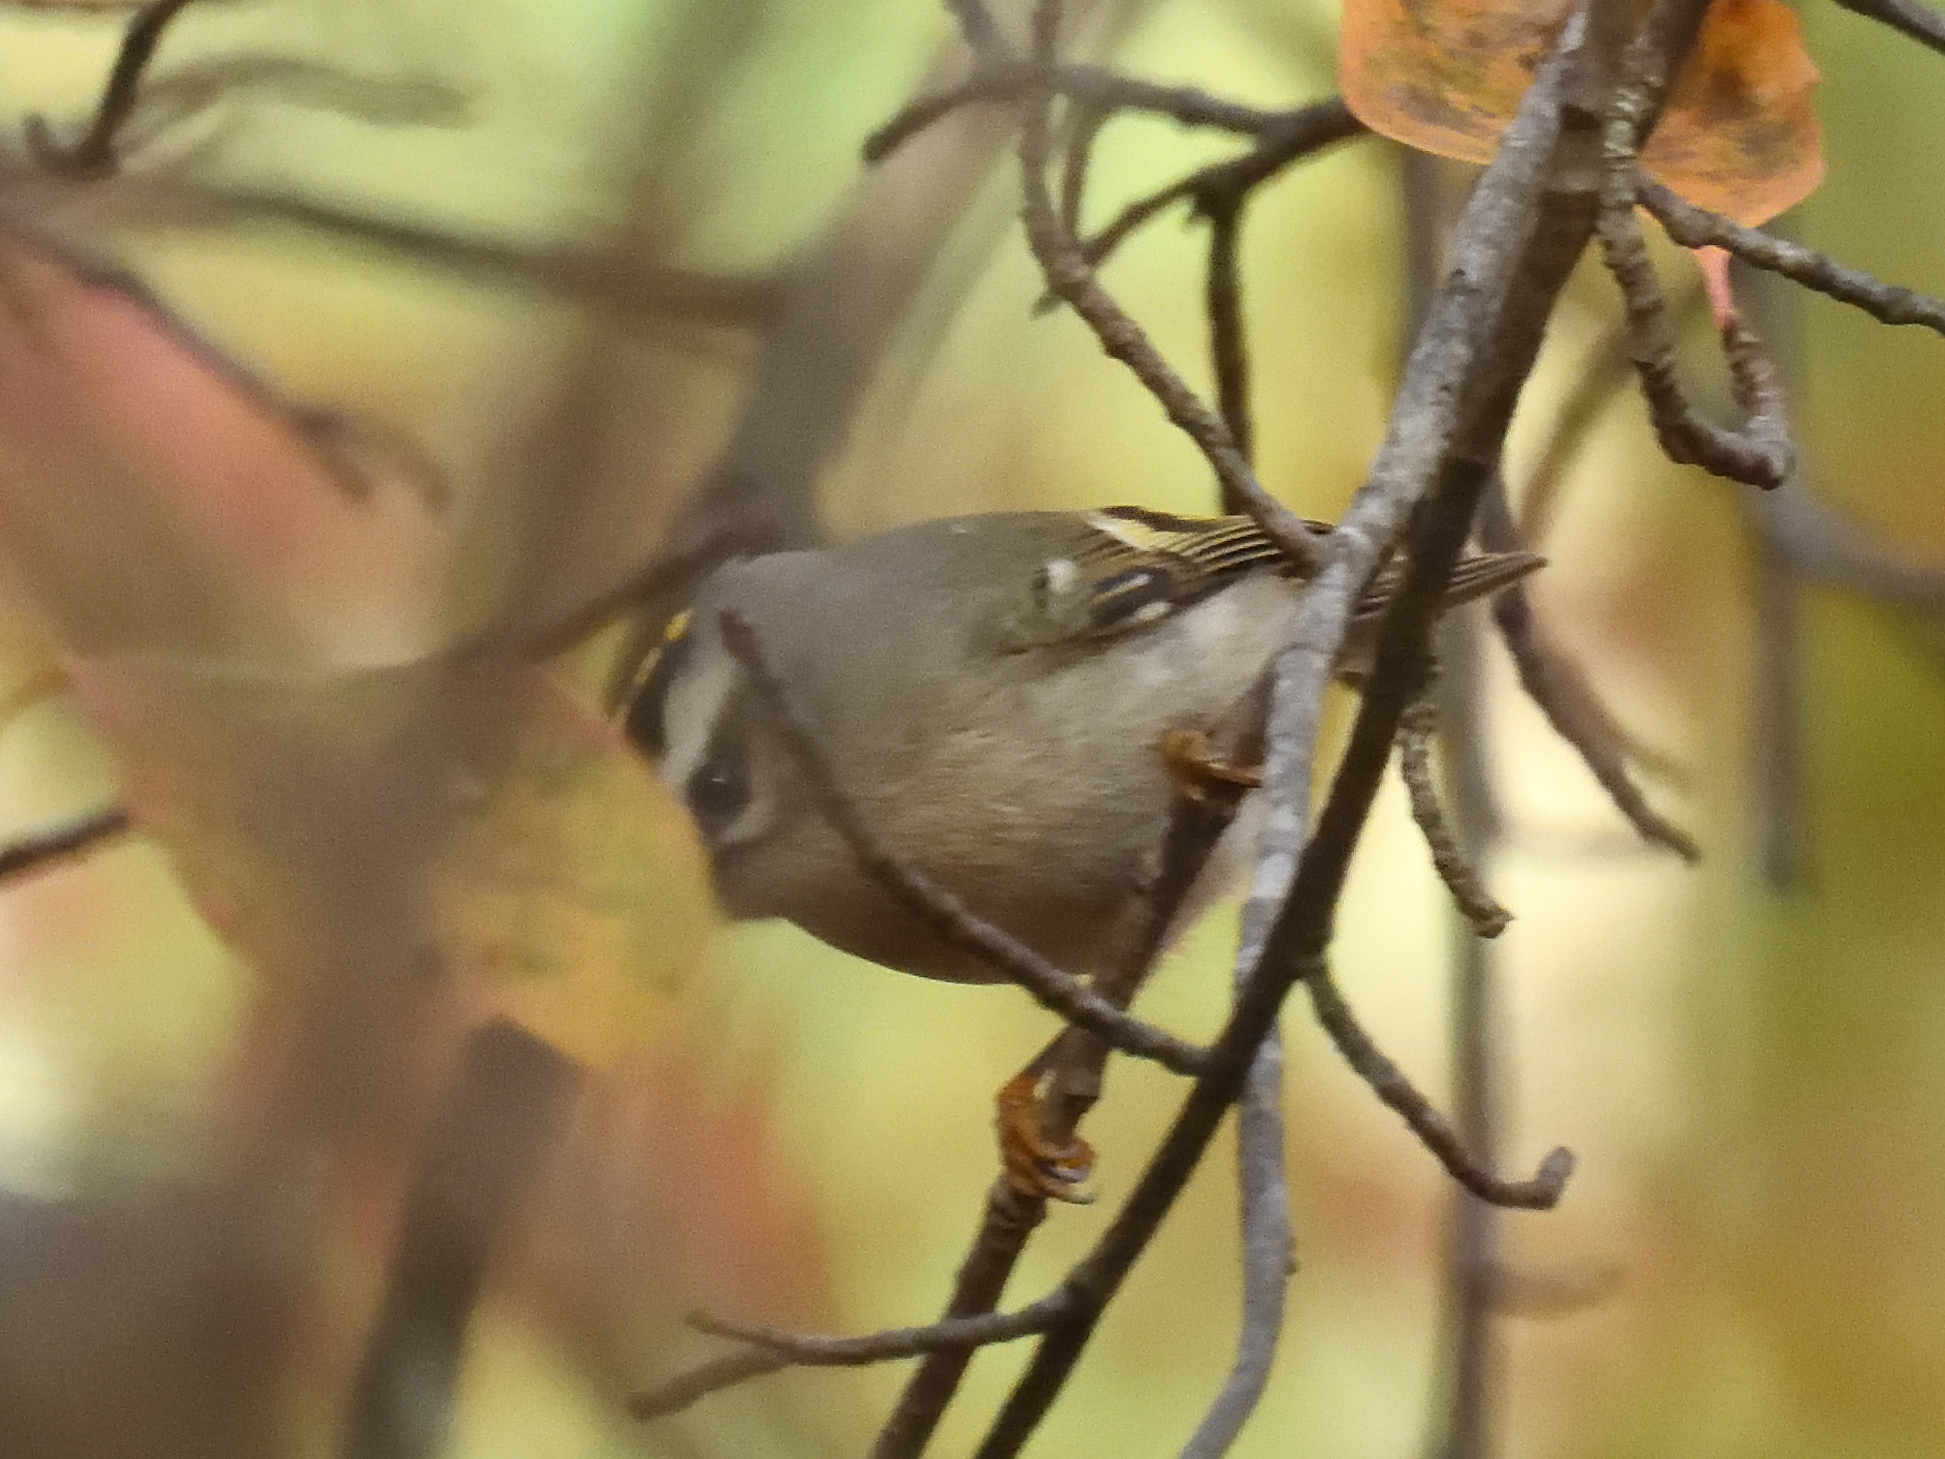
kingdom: Animalia
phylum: Chordata
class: Aves
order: Passeriformes
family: Regulidae
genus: Regulus
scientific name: Regulus satrapa
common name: Golden-crowned kinglet
